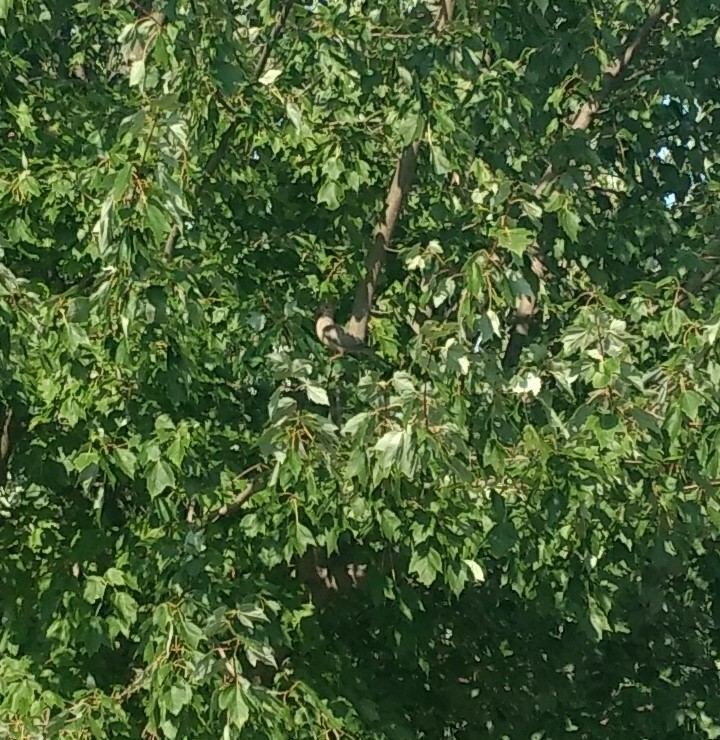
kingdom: Animalia
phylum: Chordata
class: Aves
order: Columbiformes
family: Columbidae
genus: Zenaida
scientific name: Zenaida macroura
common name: Mourning dove
